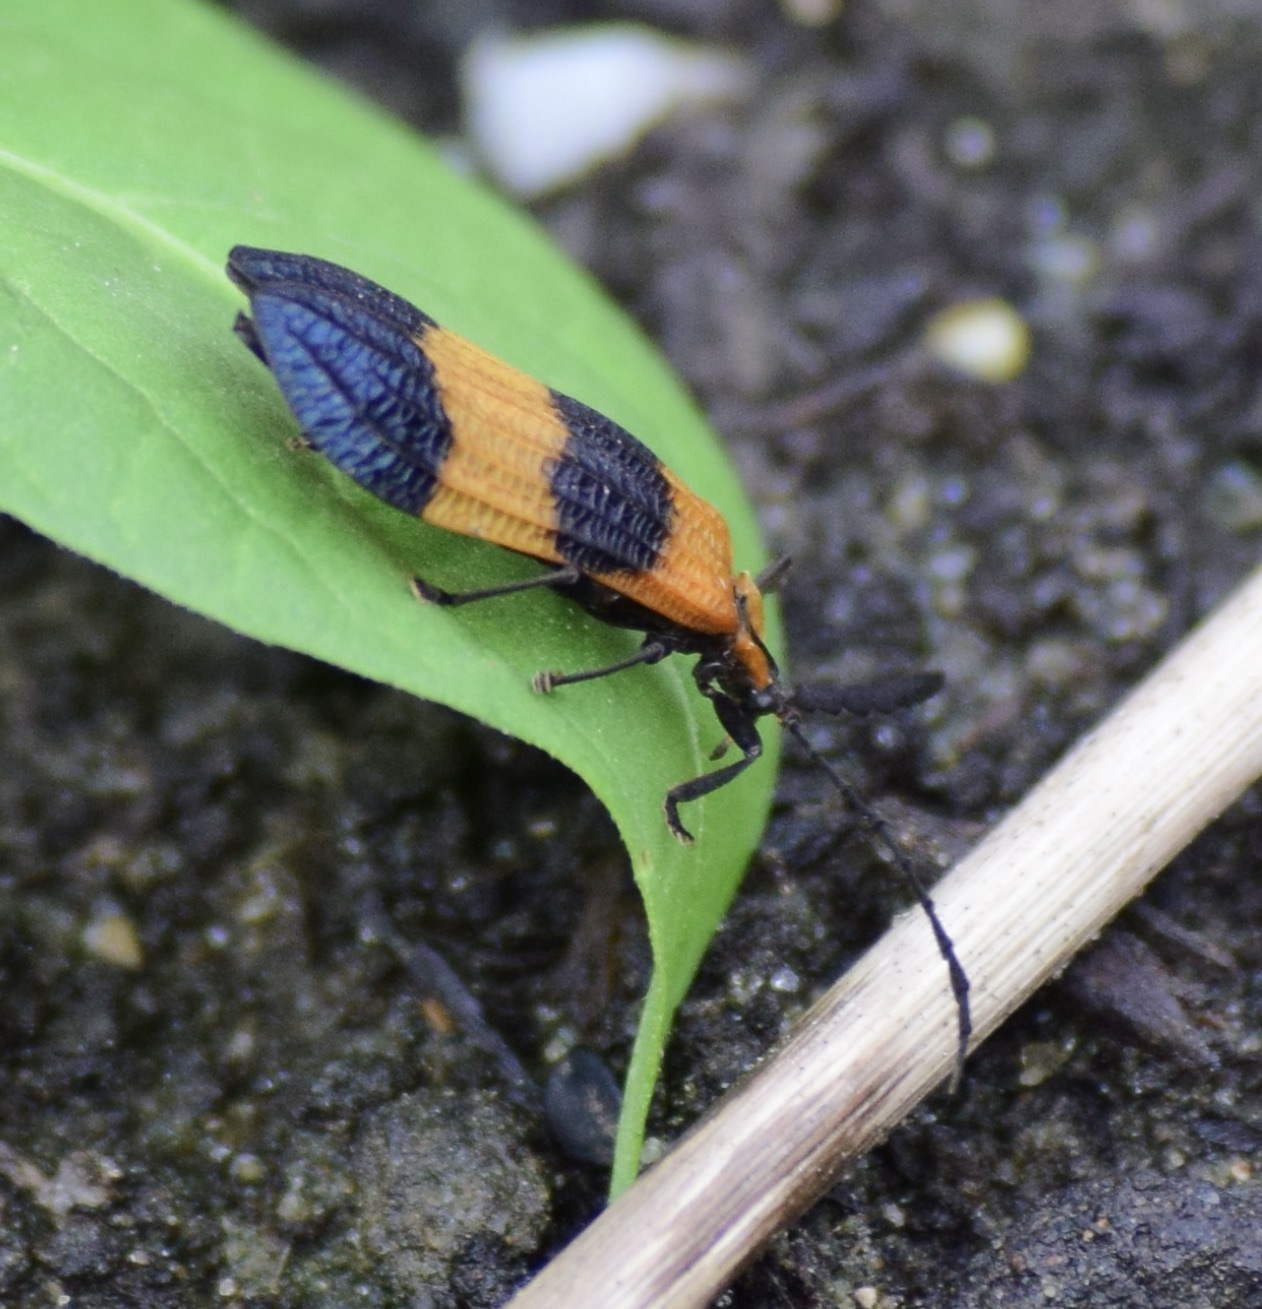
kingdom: Animalia
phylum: Arthropoda
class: Insecta
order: Coleoptera
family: Lycidae
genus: Calopteron
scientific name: Calopteron terminale
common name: End band net-winged beetle
